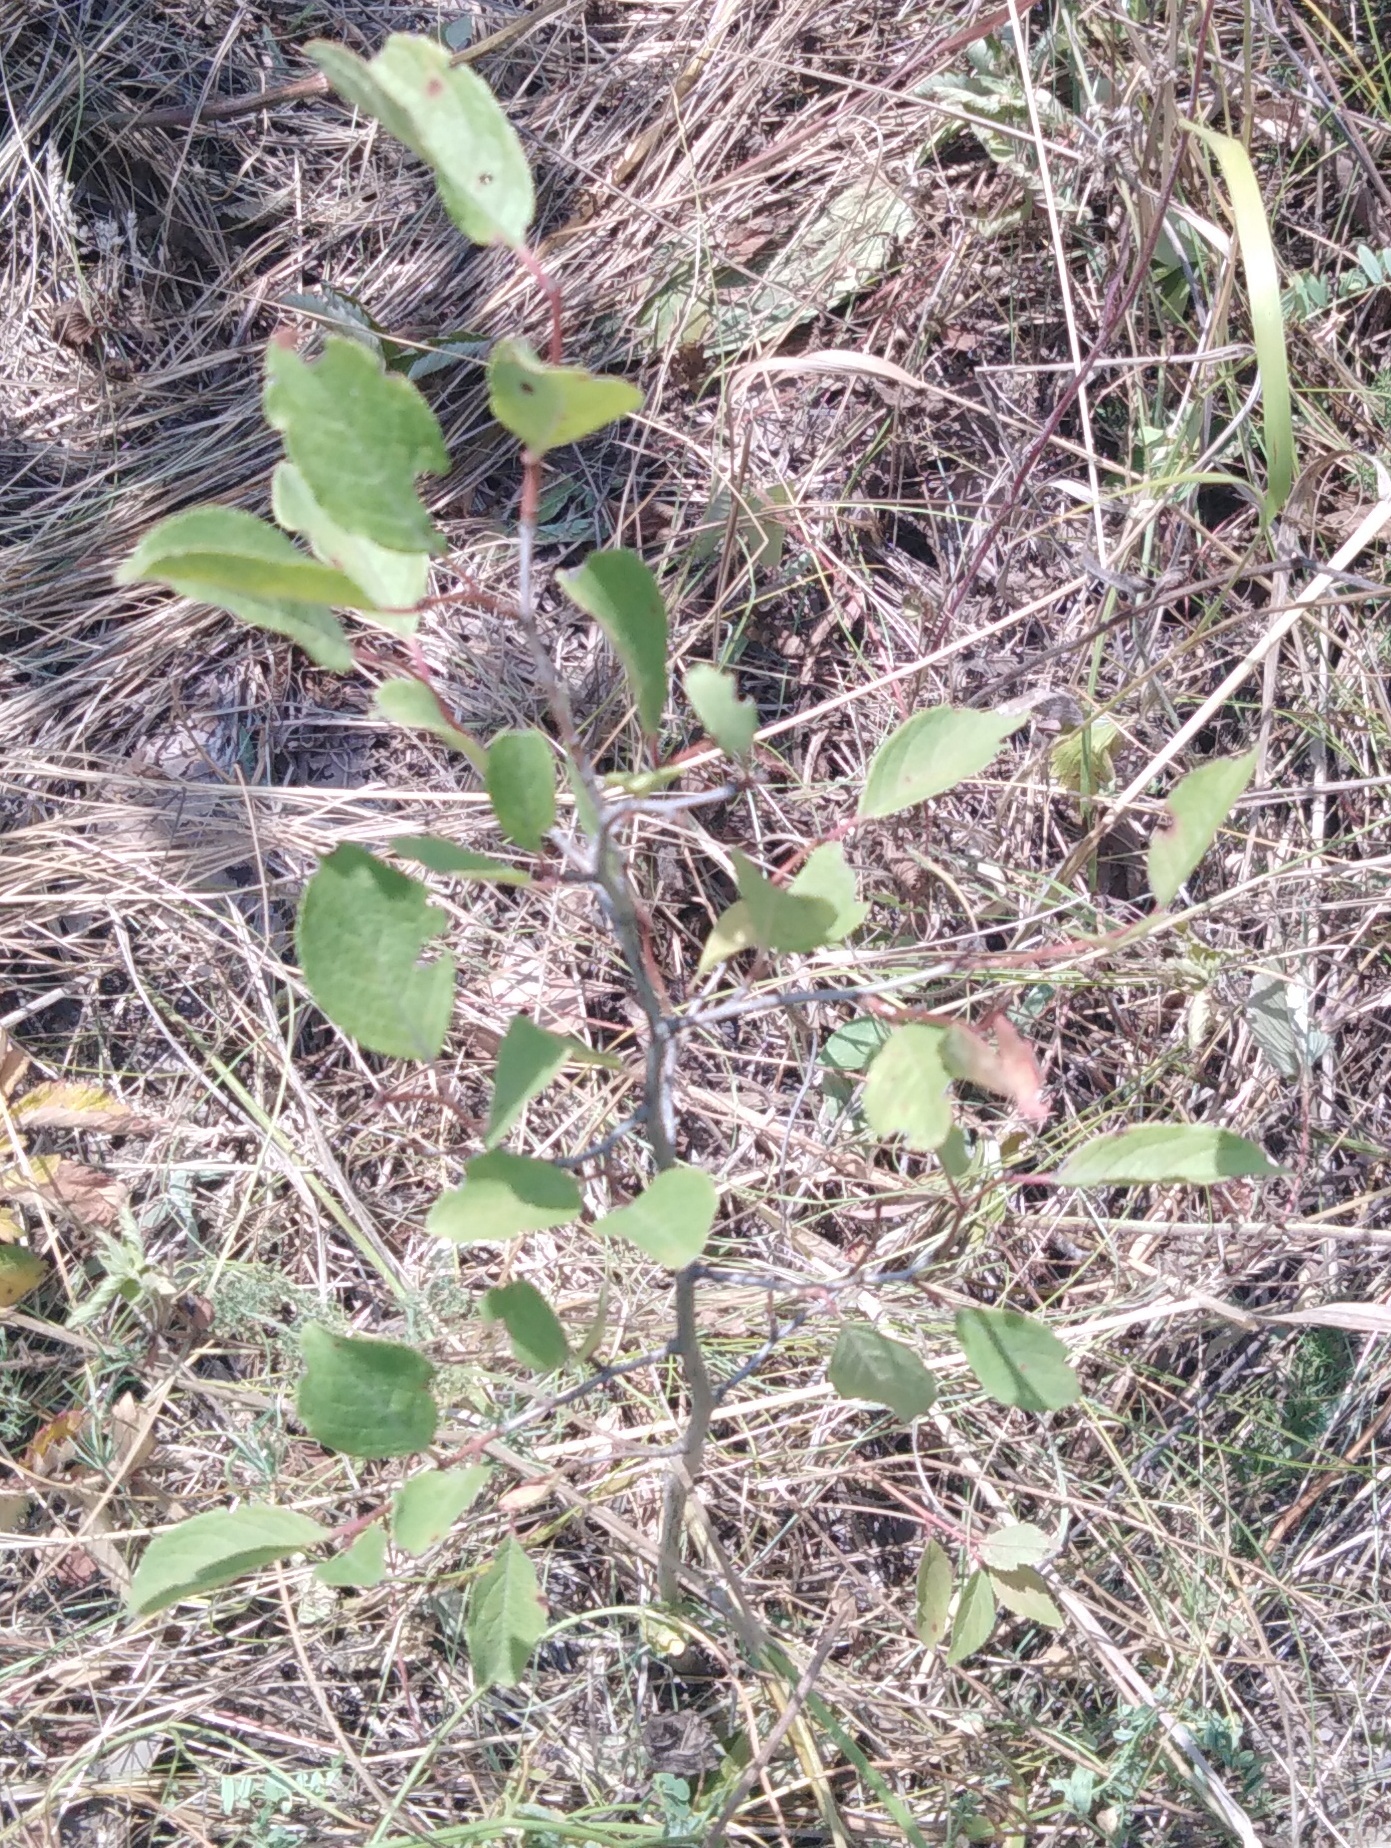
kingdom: Plantae
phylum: Tracheophyta
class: Magnoliopsida
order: Rosales
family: Rosaceae
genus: Prunus
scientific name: Prunus spinosa
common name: Blackthorn
